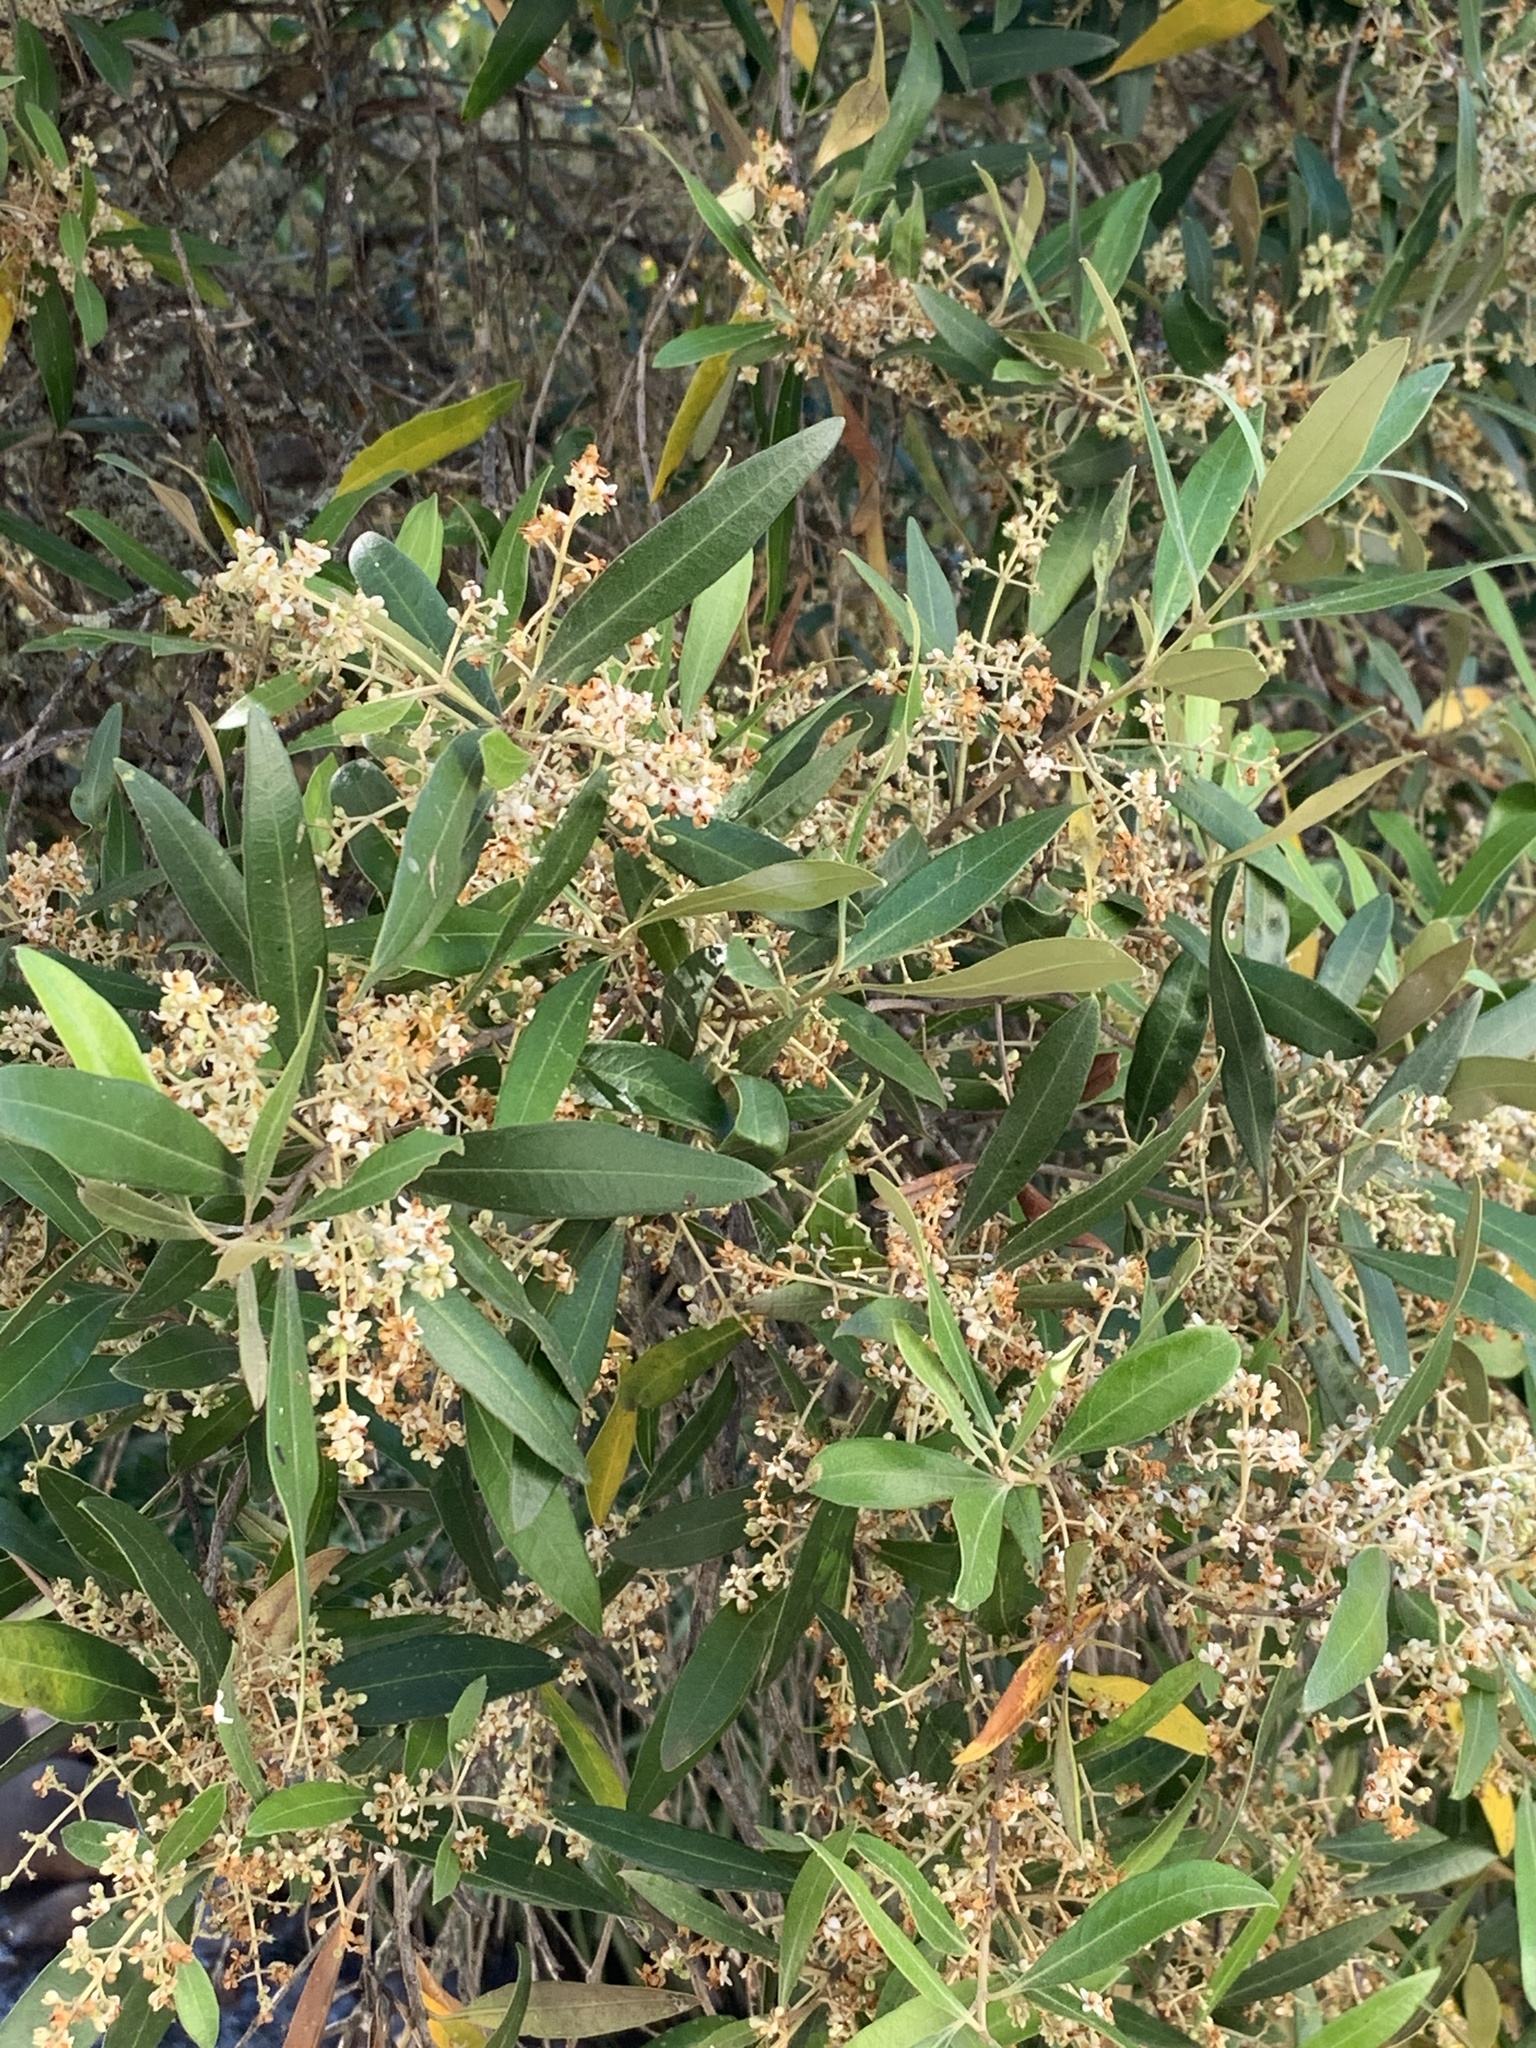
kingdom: Plantae
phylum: Tracheophyta
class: Magnoliopsida
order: Lamiales
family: Oleaceae
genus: Olea
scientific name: Olea europaea
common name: Olive
